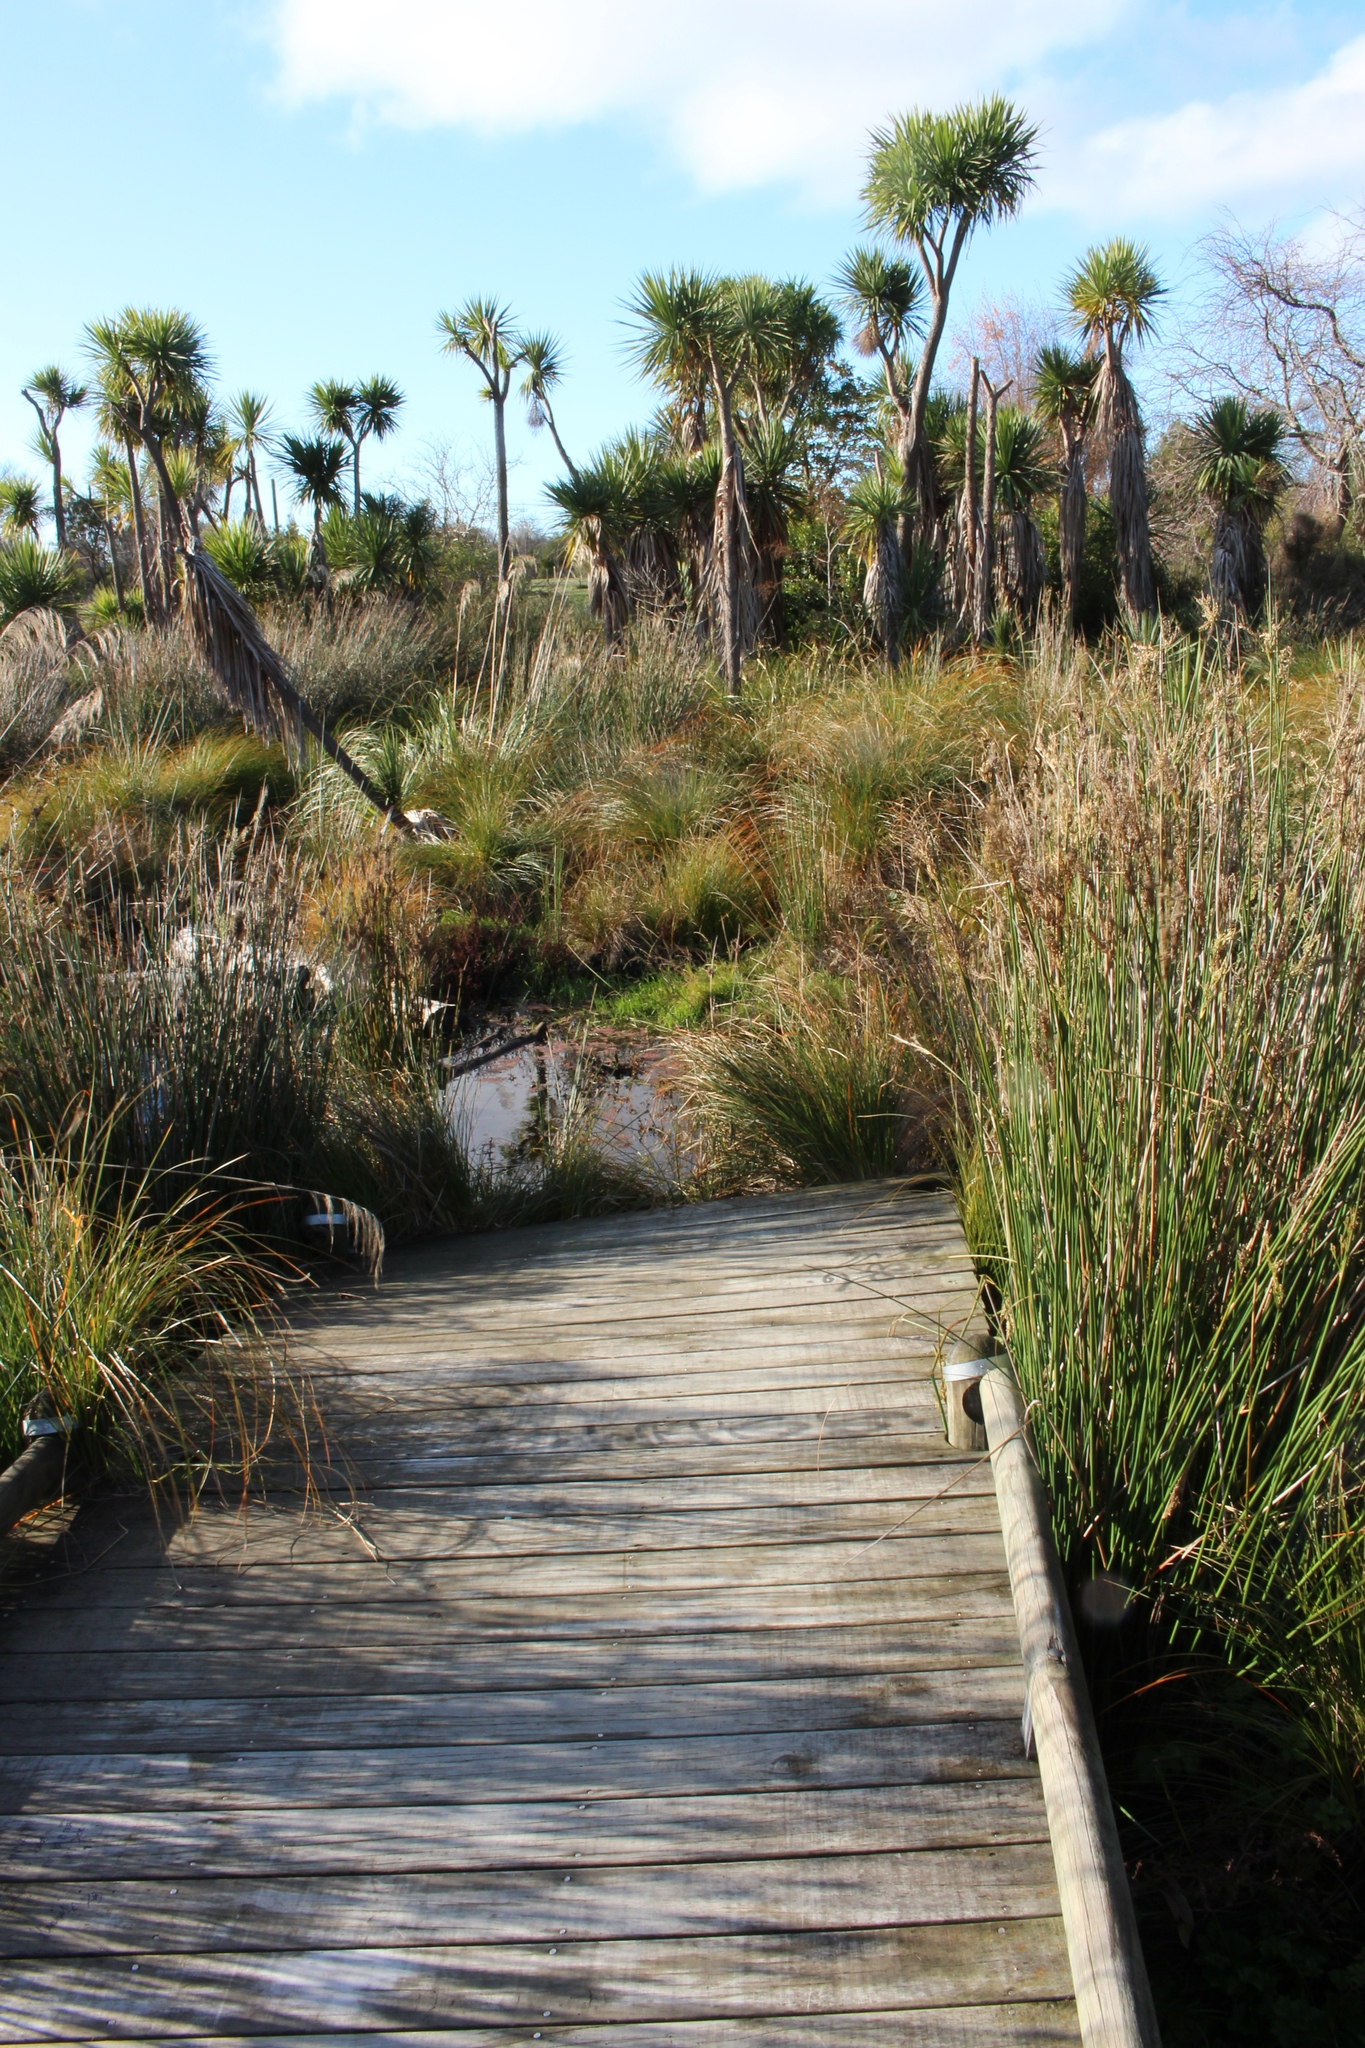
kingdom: Plantae
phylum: Tracheophyta
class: Liliopsida
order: Asparagales
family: Asparagaceae
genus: Cordyline
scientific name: Cordyline australis
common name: Cabbage-palm
